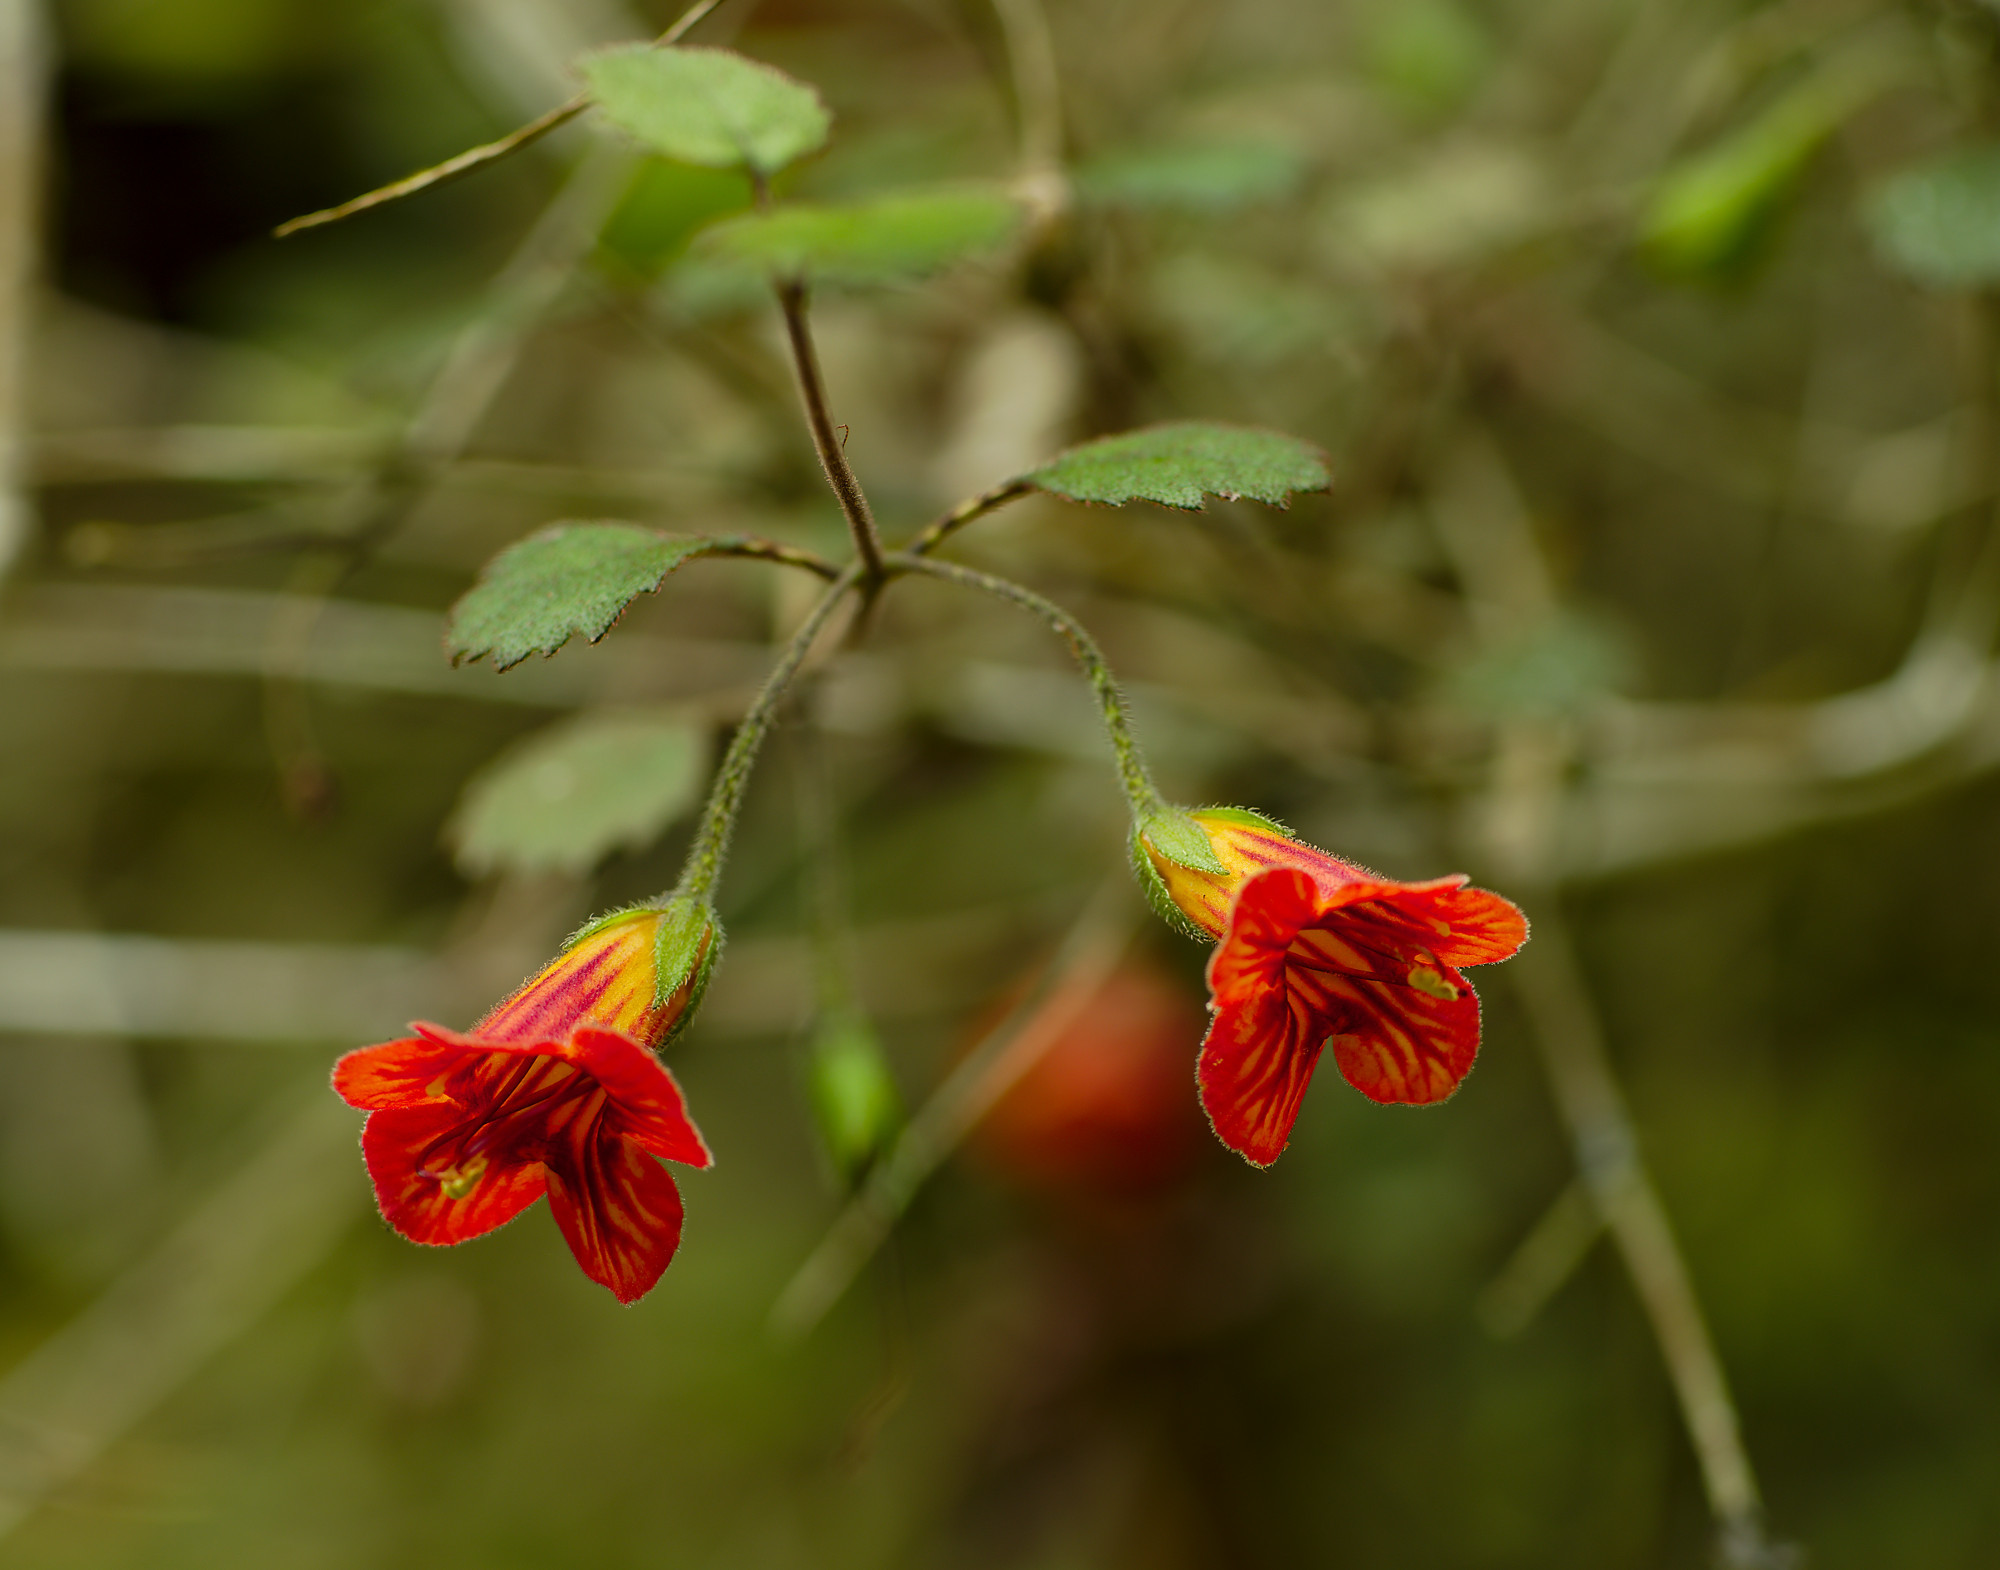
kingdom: Plantae
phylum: Tracheophyta
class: Magnoliopsida
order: Lamiales
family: Gesneriaceae
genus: Rhabdothamnus
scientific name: Rhabdothamnus solandri
